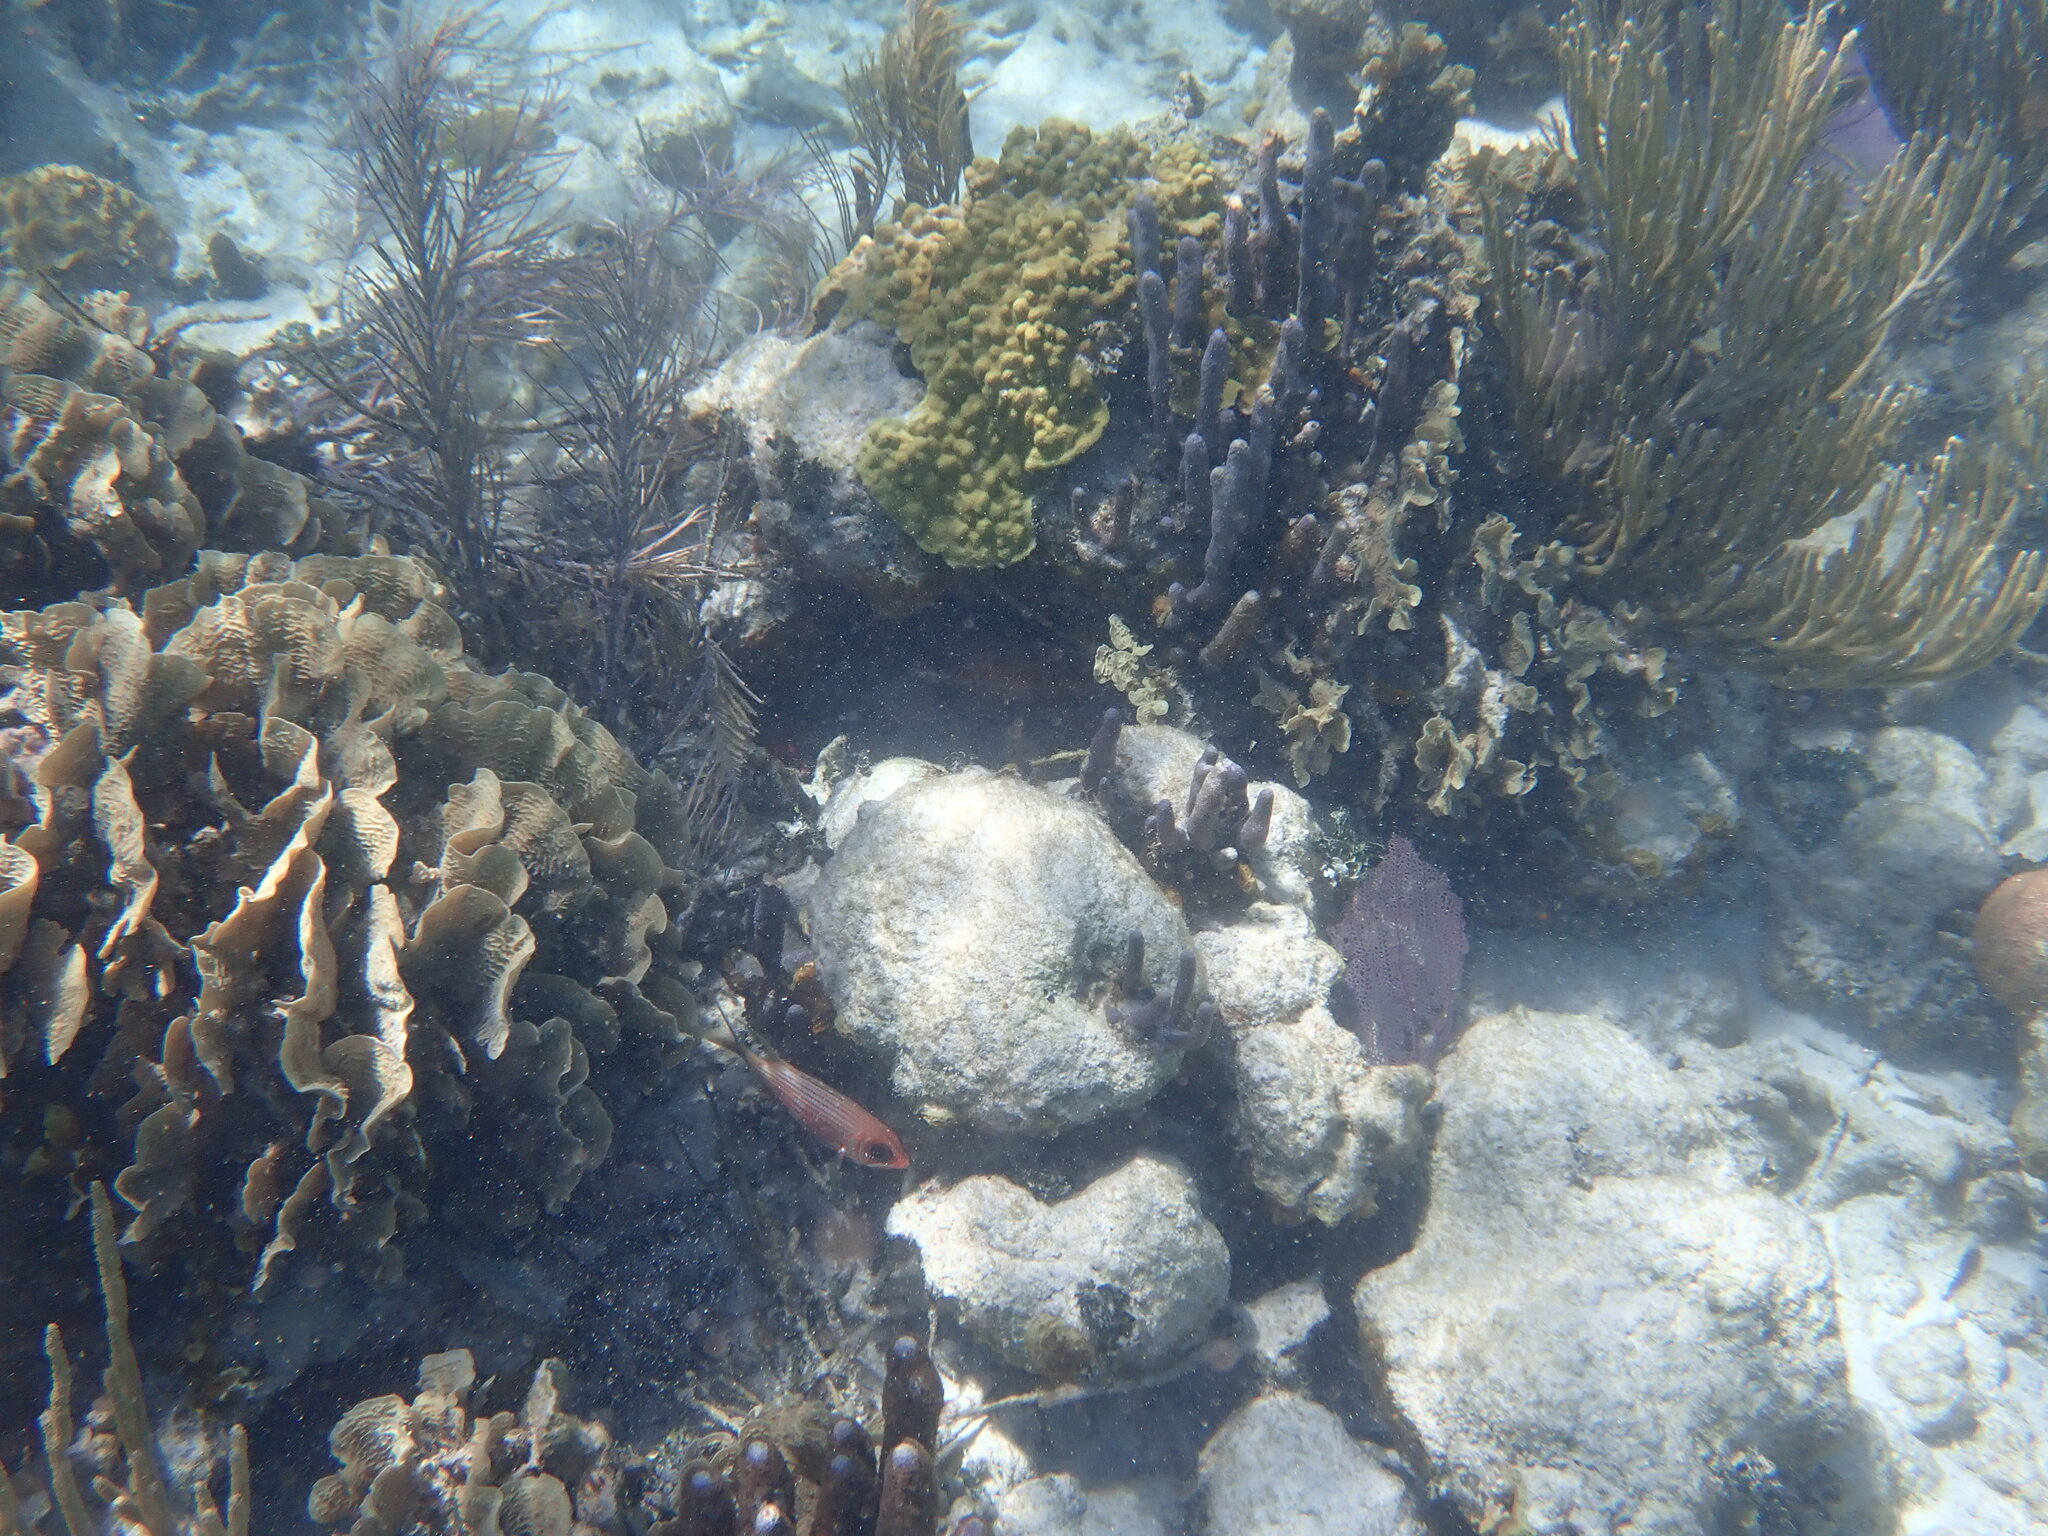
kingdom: Animalia
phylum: Chordata
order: Beryciformes
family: Holocentridae
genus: Holocentrus
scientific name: Holocentrus rufus
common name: Longspine squirrelfish
